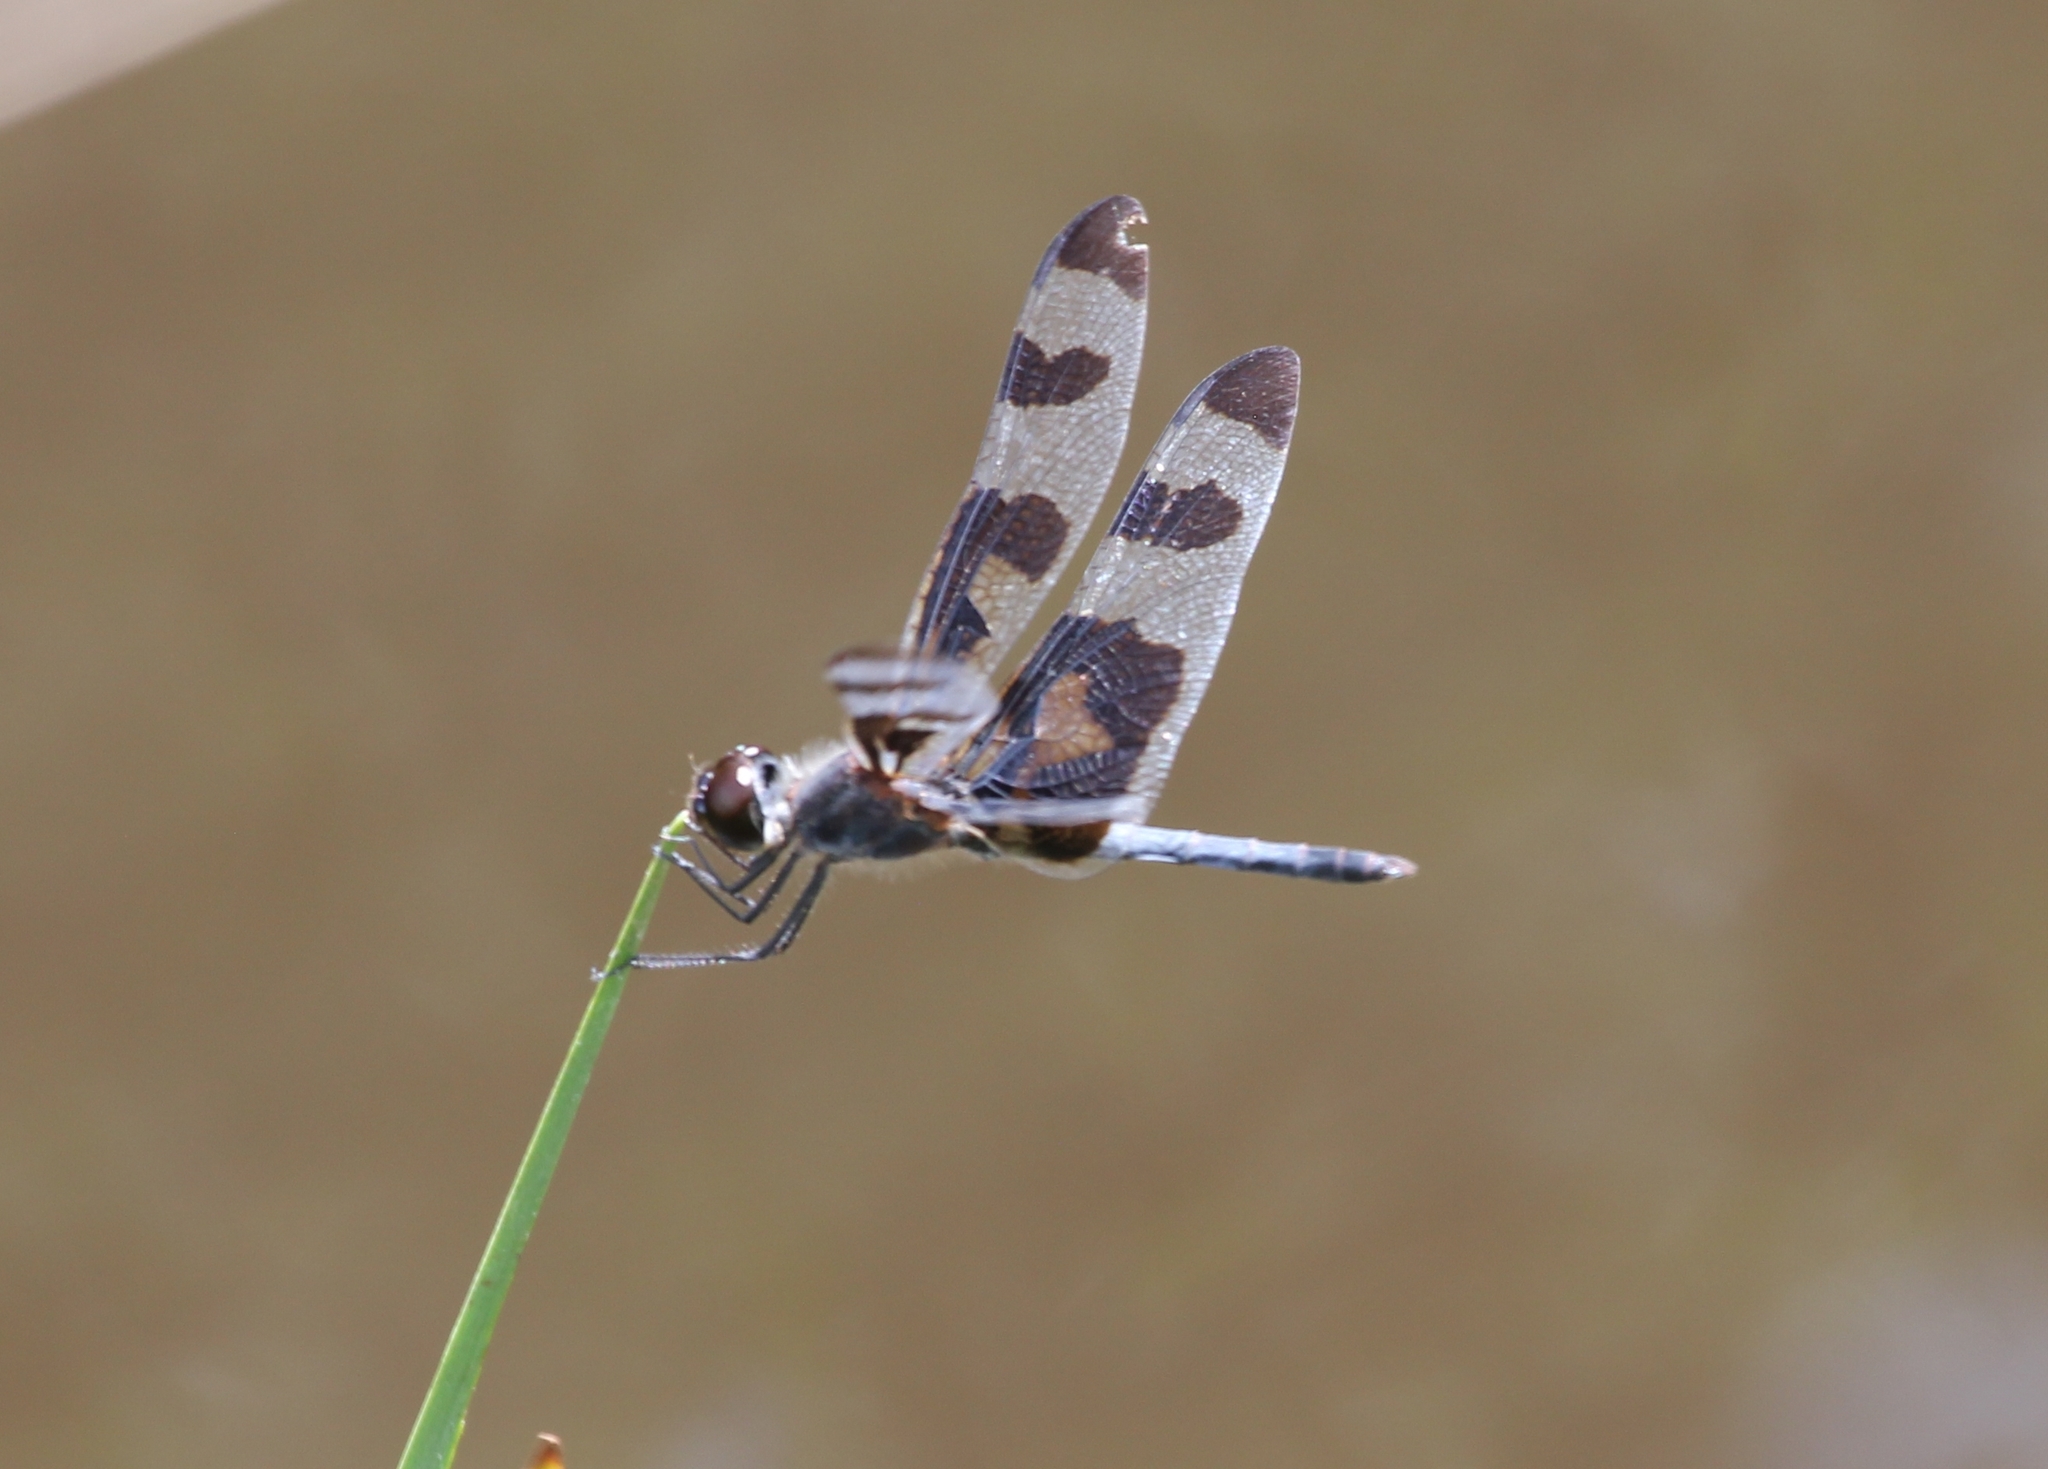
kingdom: Animalia
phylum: Arthropoda
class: Insecta
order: Odonata
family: Libellulidae
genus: Celithemis
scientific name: Celithemis fasciata
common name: Banded pennant
